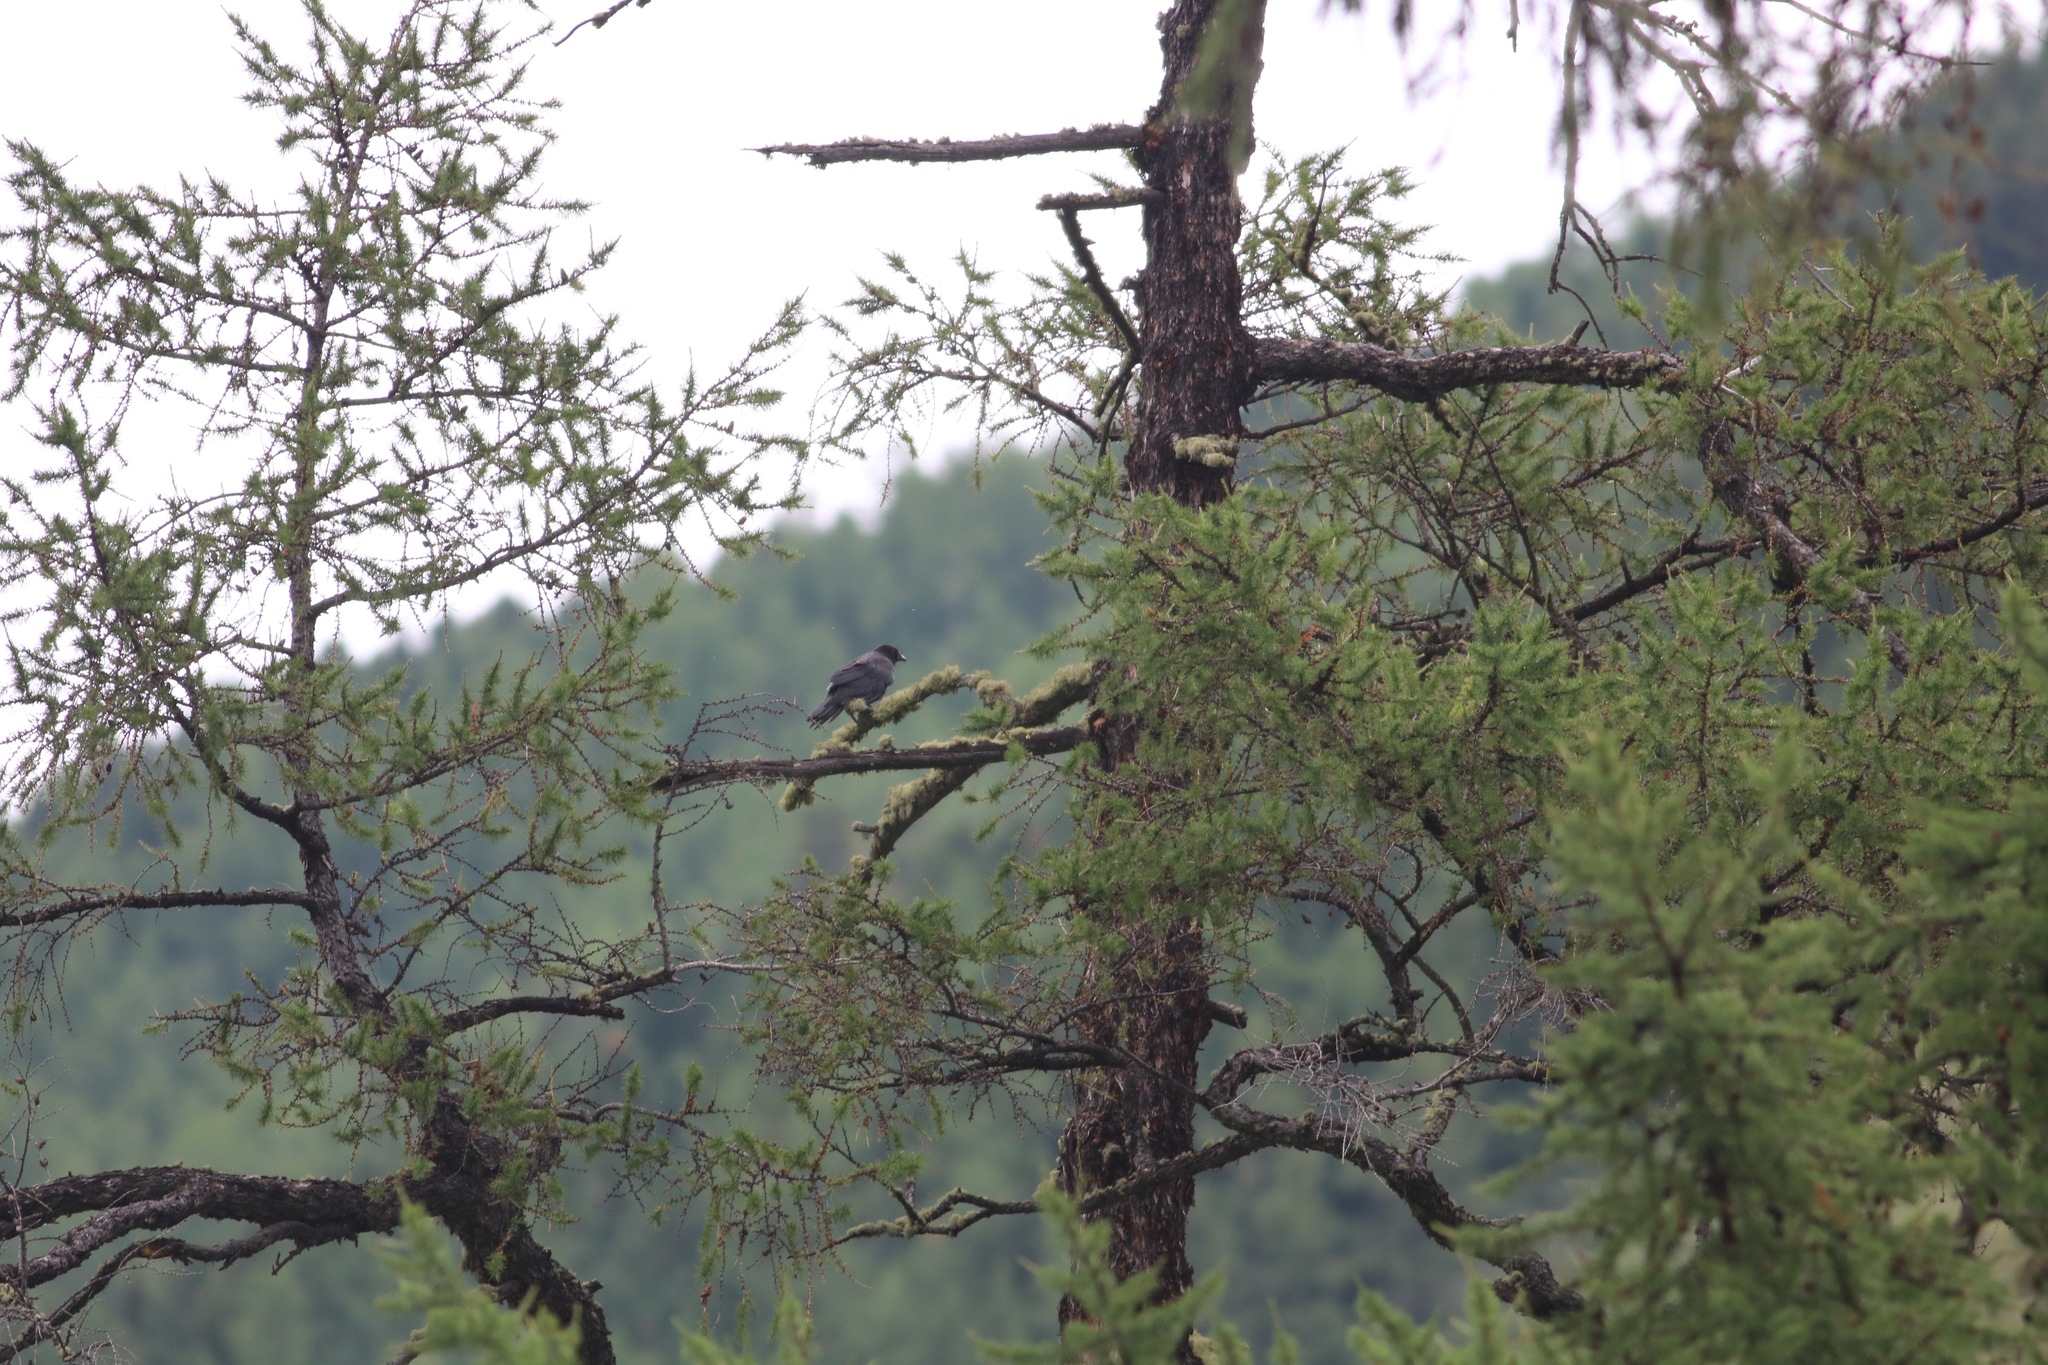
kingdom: Animalia
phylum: Chordata
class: Aves
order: Passeriformes
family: Corvidae
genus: Corvus
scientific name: Corvus corone
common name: Carrion crow
